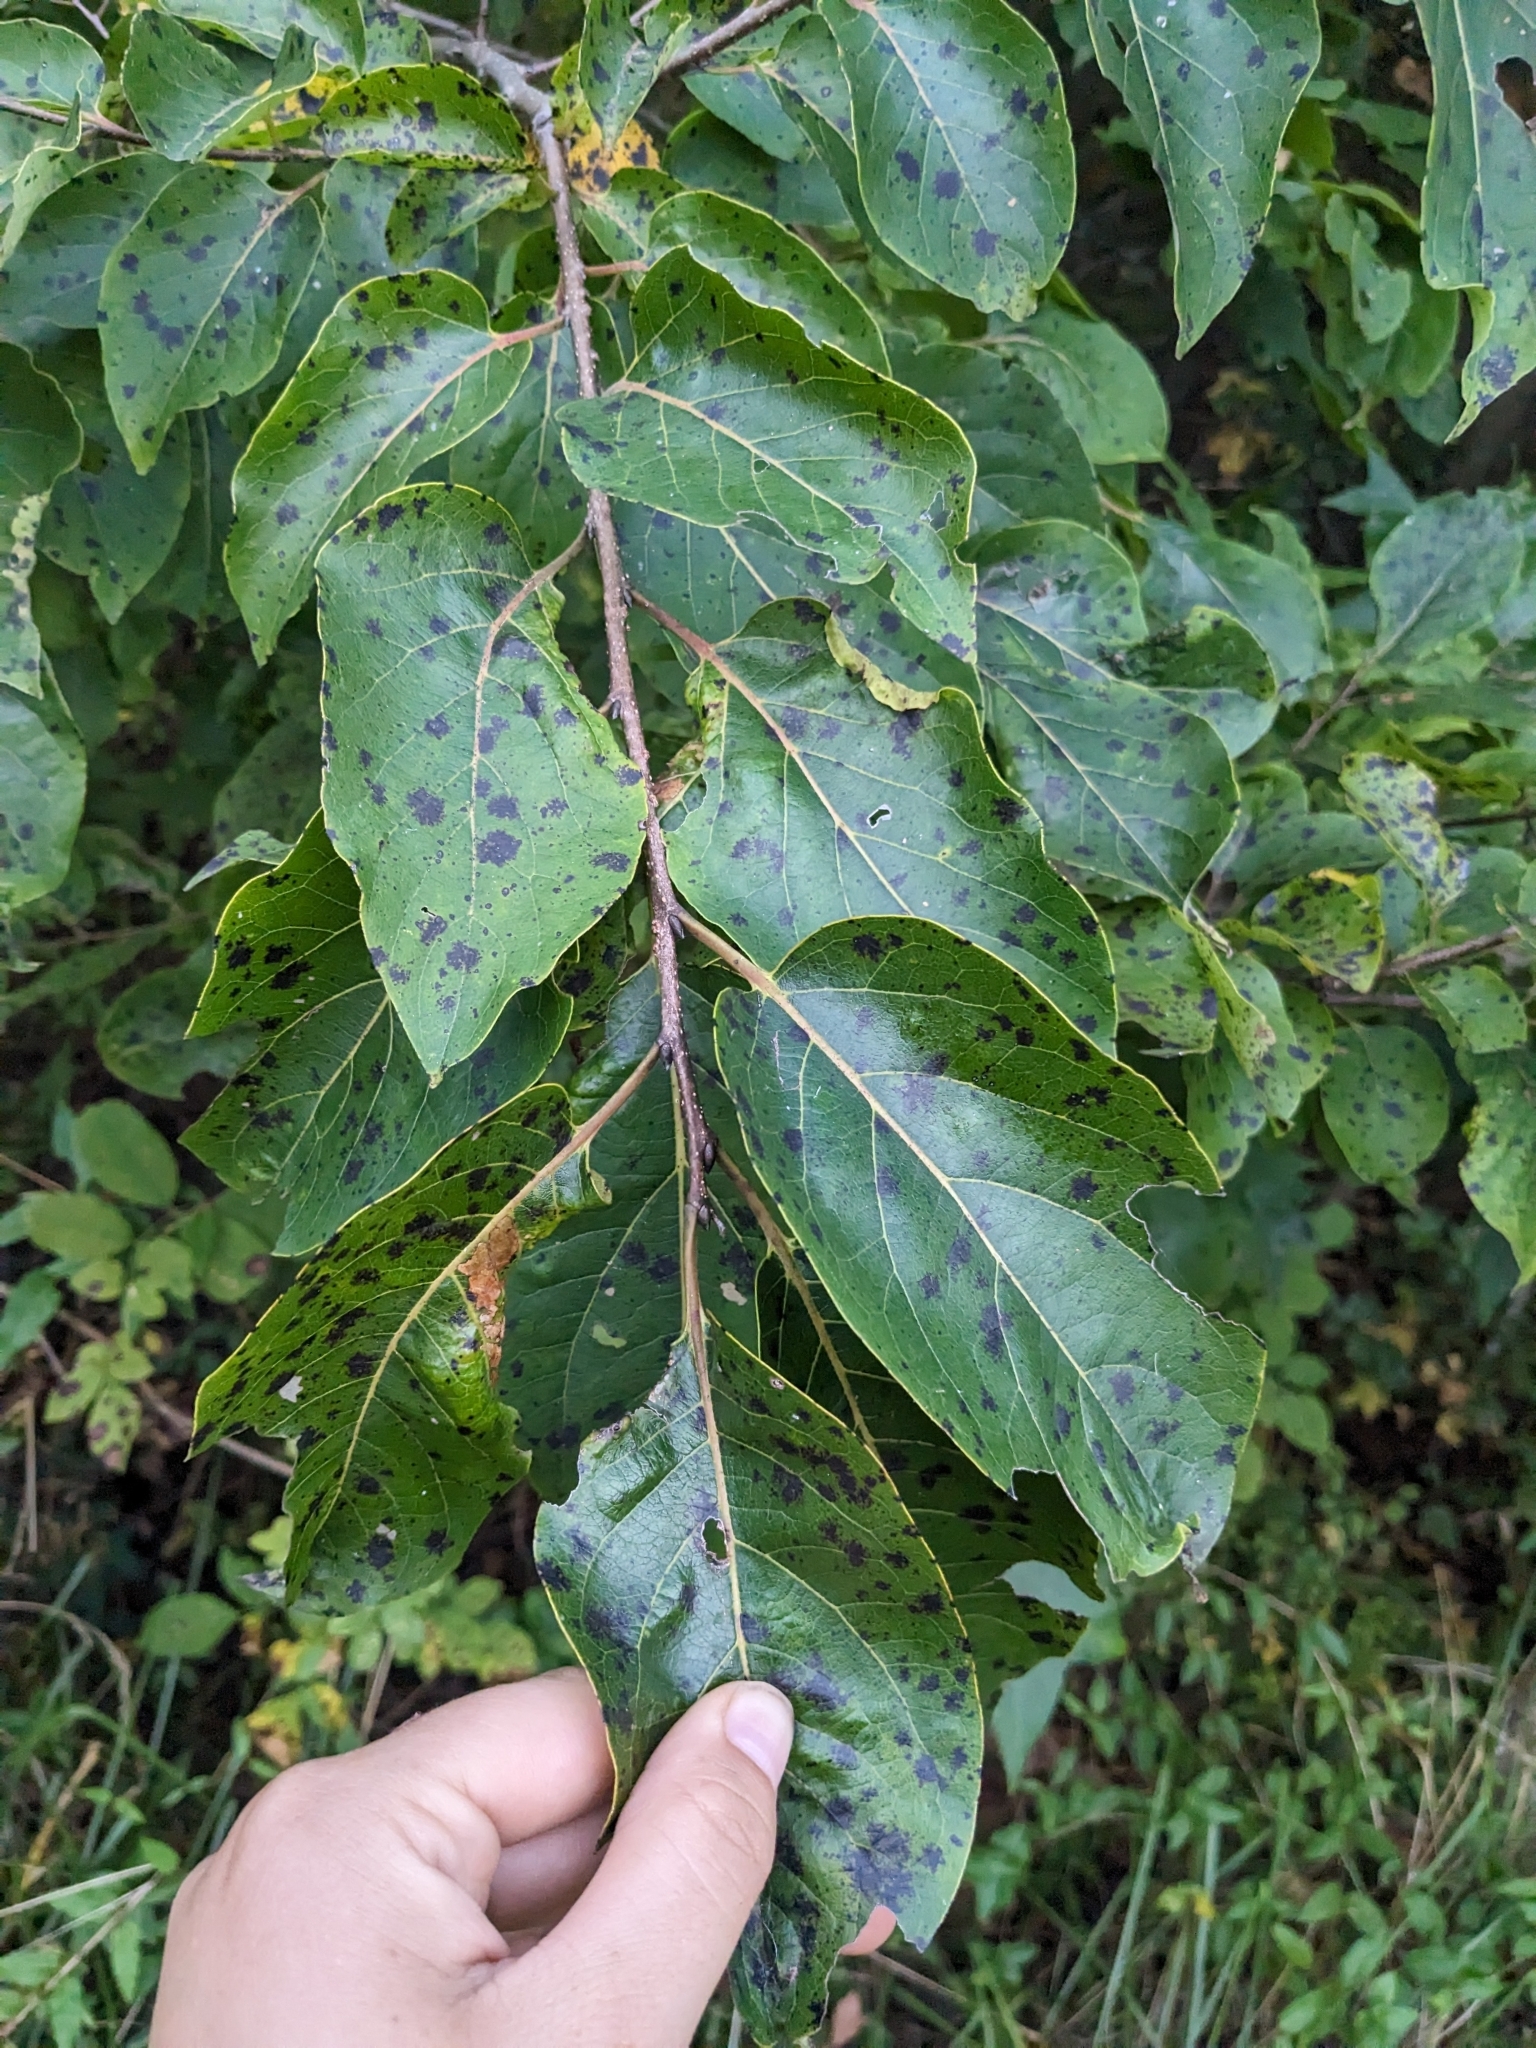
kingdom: Plantae
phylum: Tracheophyta
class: Magnoliopsida
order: Ericales
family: Ebenaceae
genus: Diospyros
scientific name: Diospyros virginiana
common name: Persimmon
